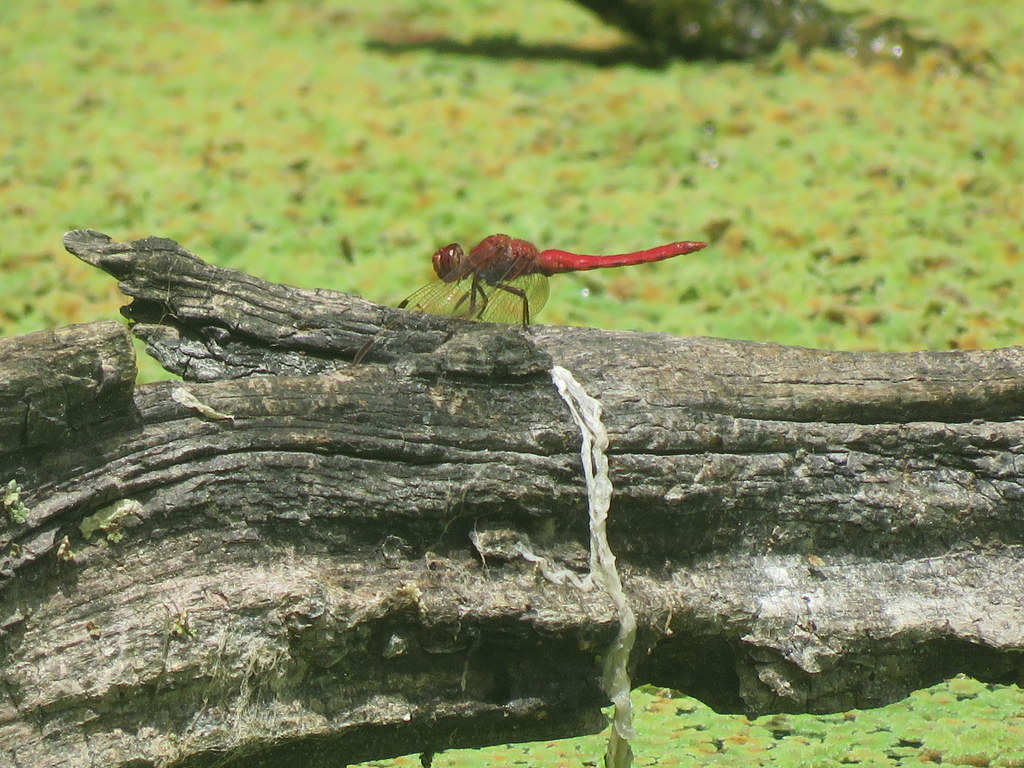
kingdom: Animalia
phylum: Arthropoda
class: Insecta
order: Odonata
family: Libellulidae
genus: Orthemis
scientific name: Orthemis nodiplaga
